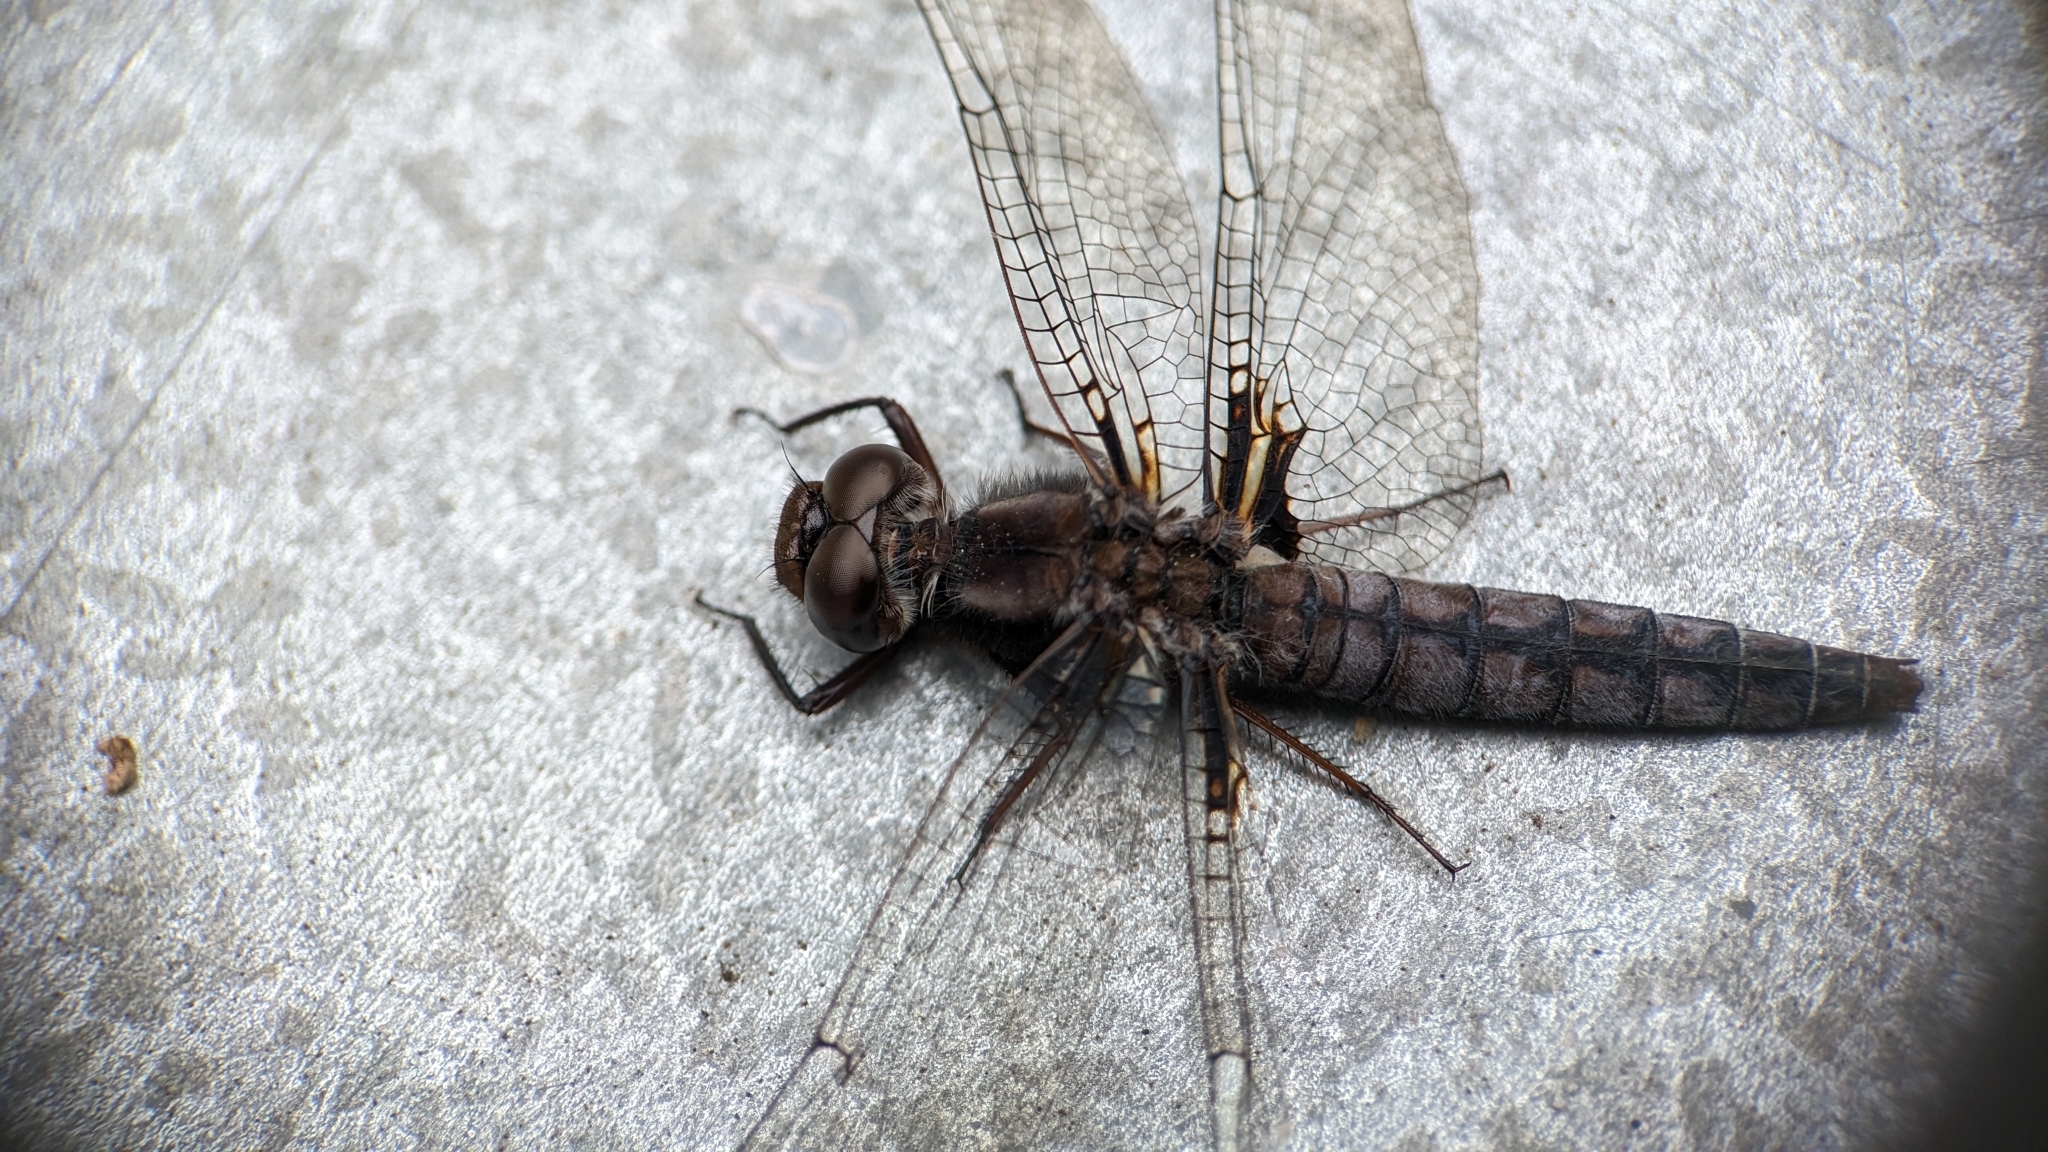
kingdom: Animalia
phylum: Arthropoda
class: Insecta
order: Odonata
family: Libellulidae
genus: Ladona
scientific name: Ladona deplanata
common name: Blue corporal
